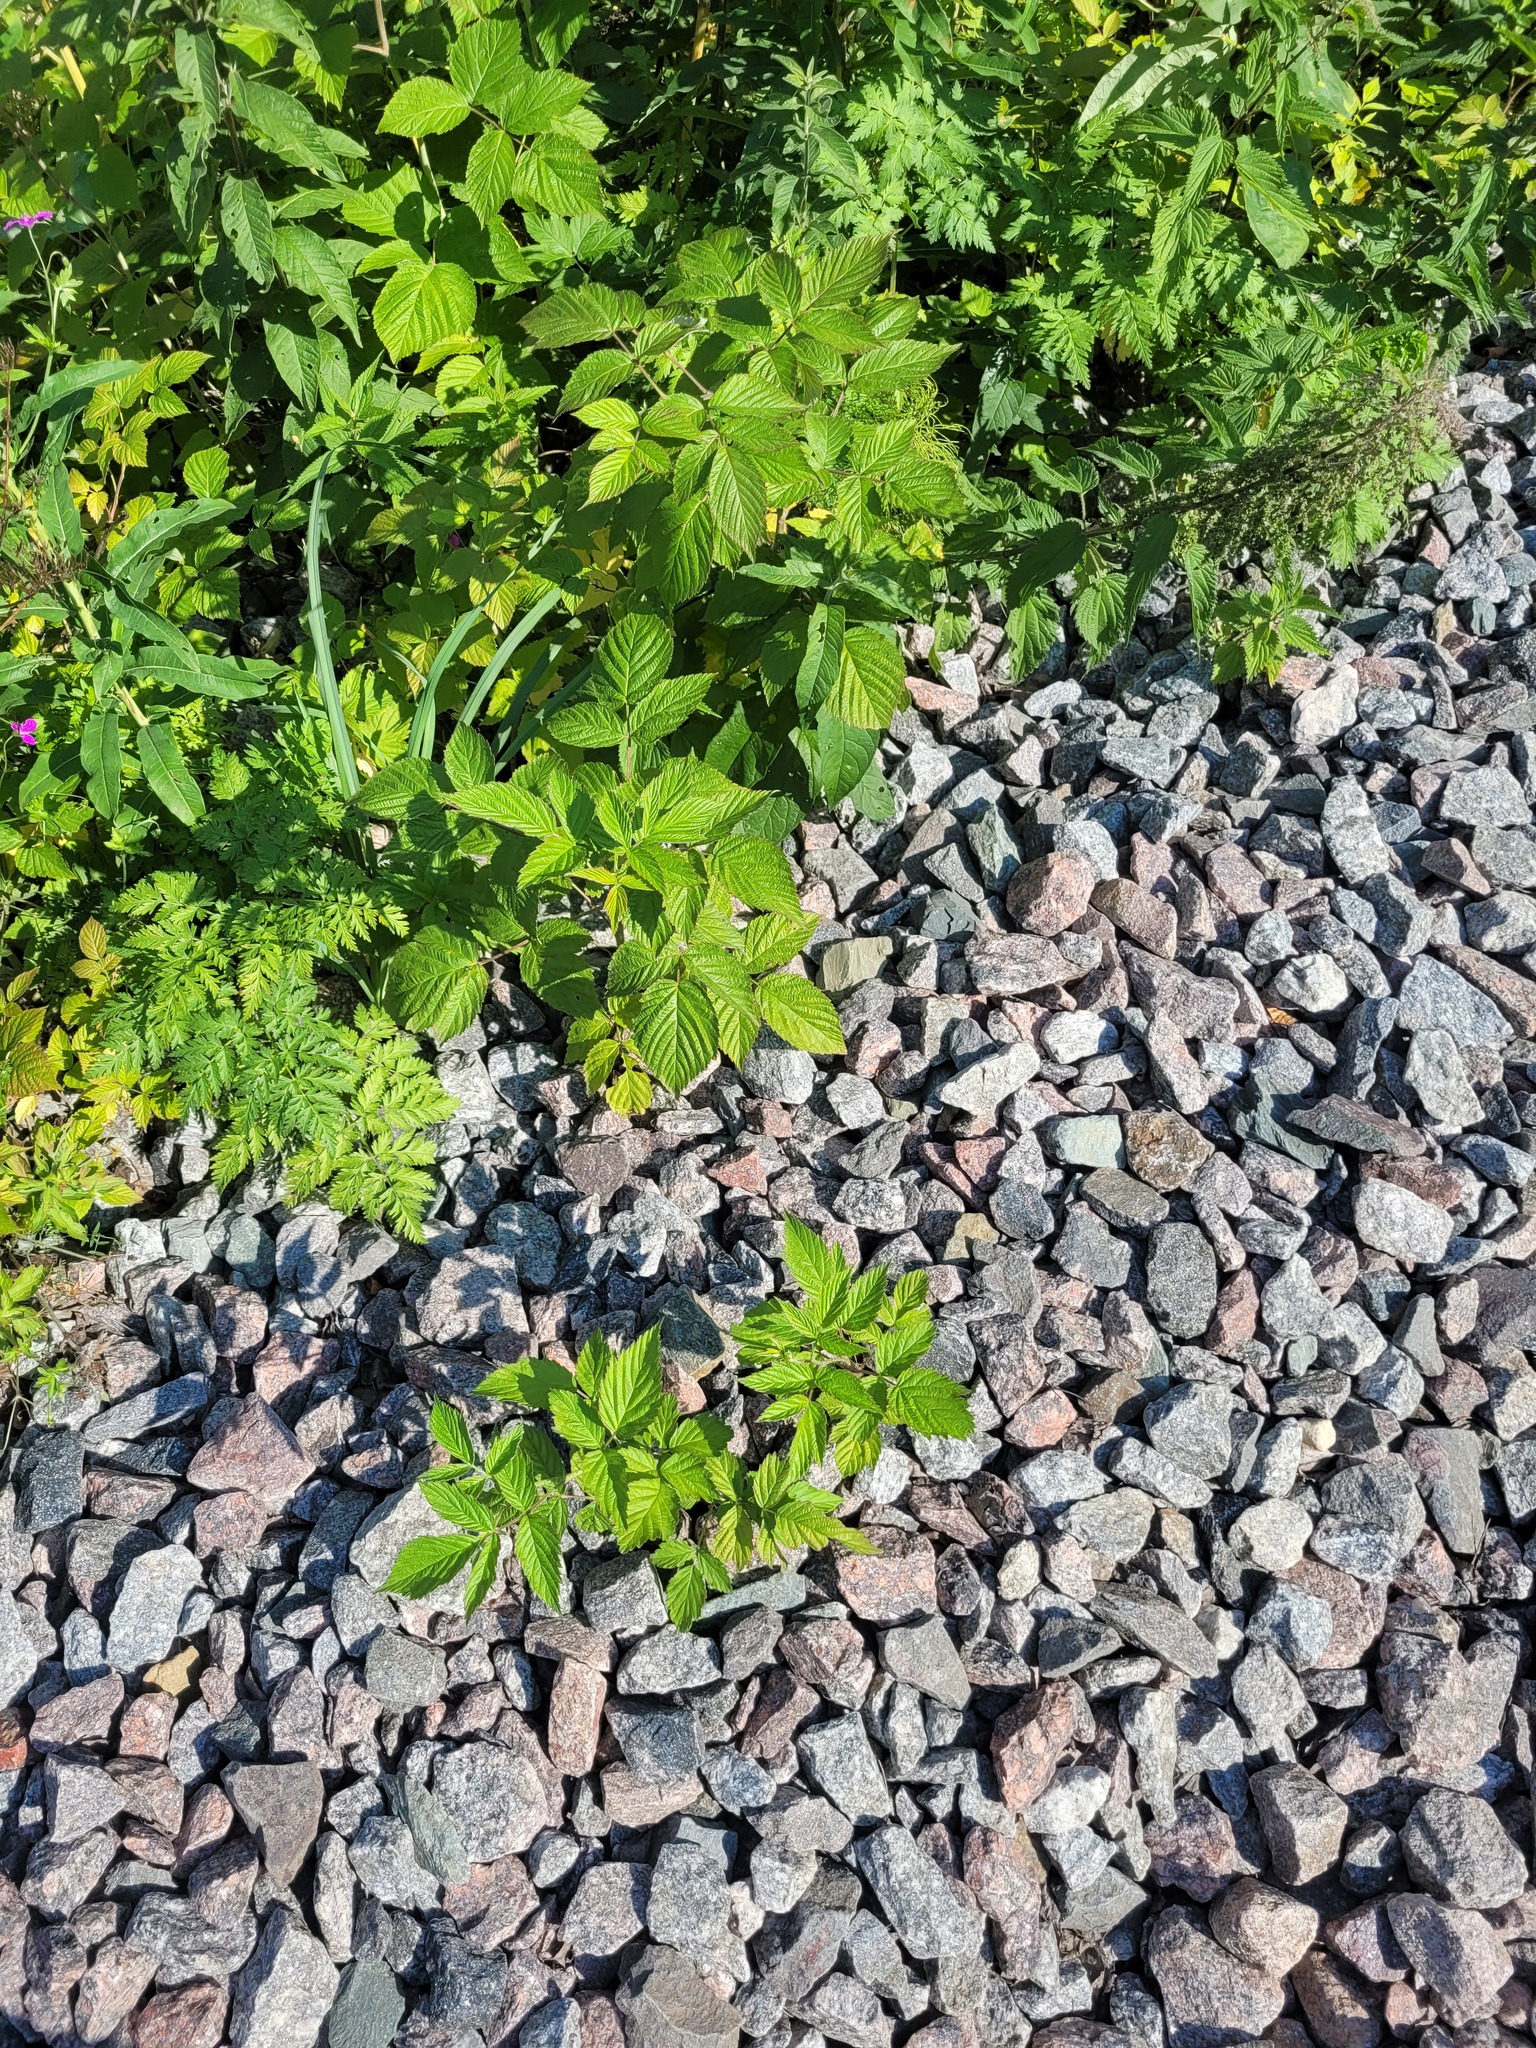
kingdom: Plantae
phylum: Tracheophyta
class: Magnoliopsida
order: Rosales
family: Rosaceae
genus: Rubus
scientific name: Rubus idaeus
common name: Raspberry
